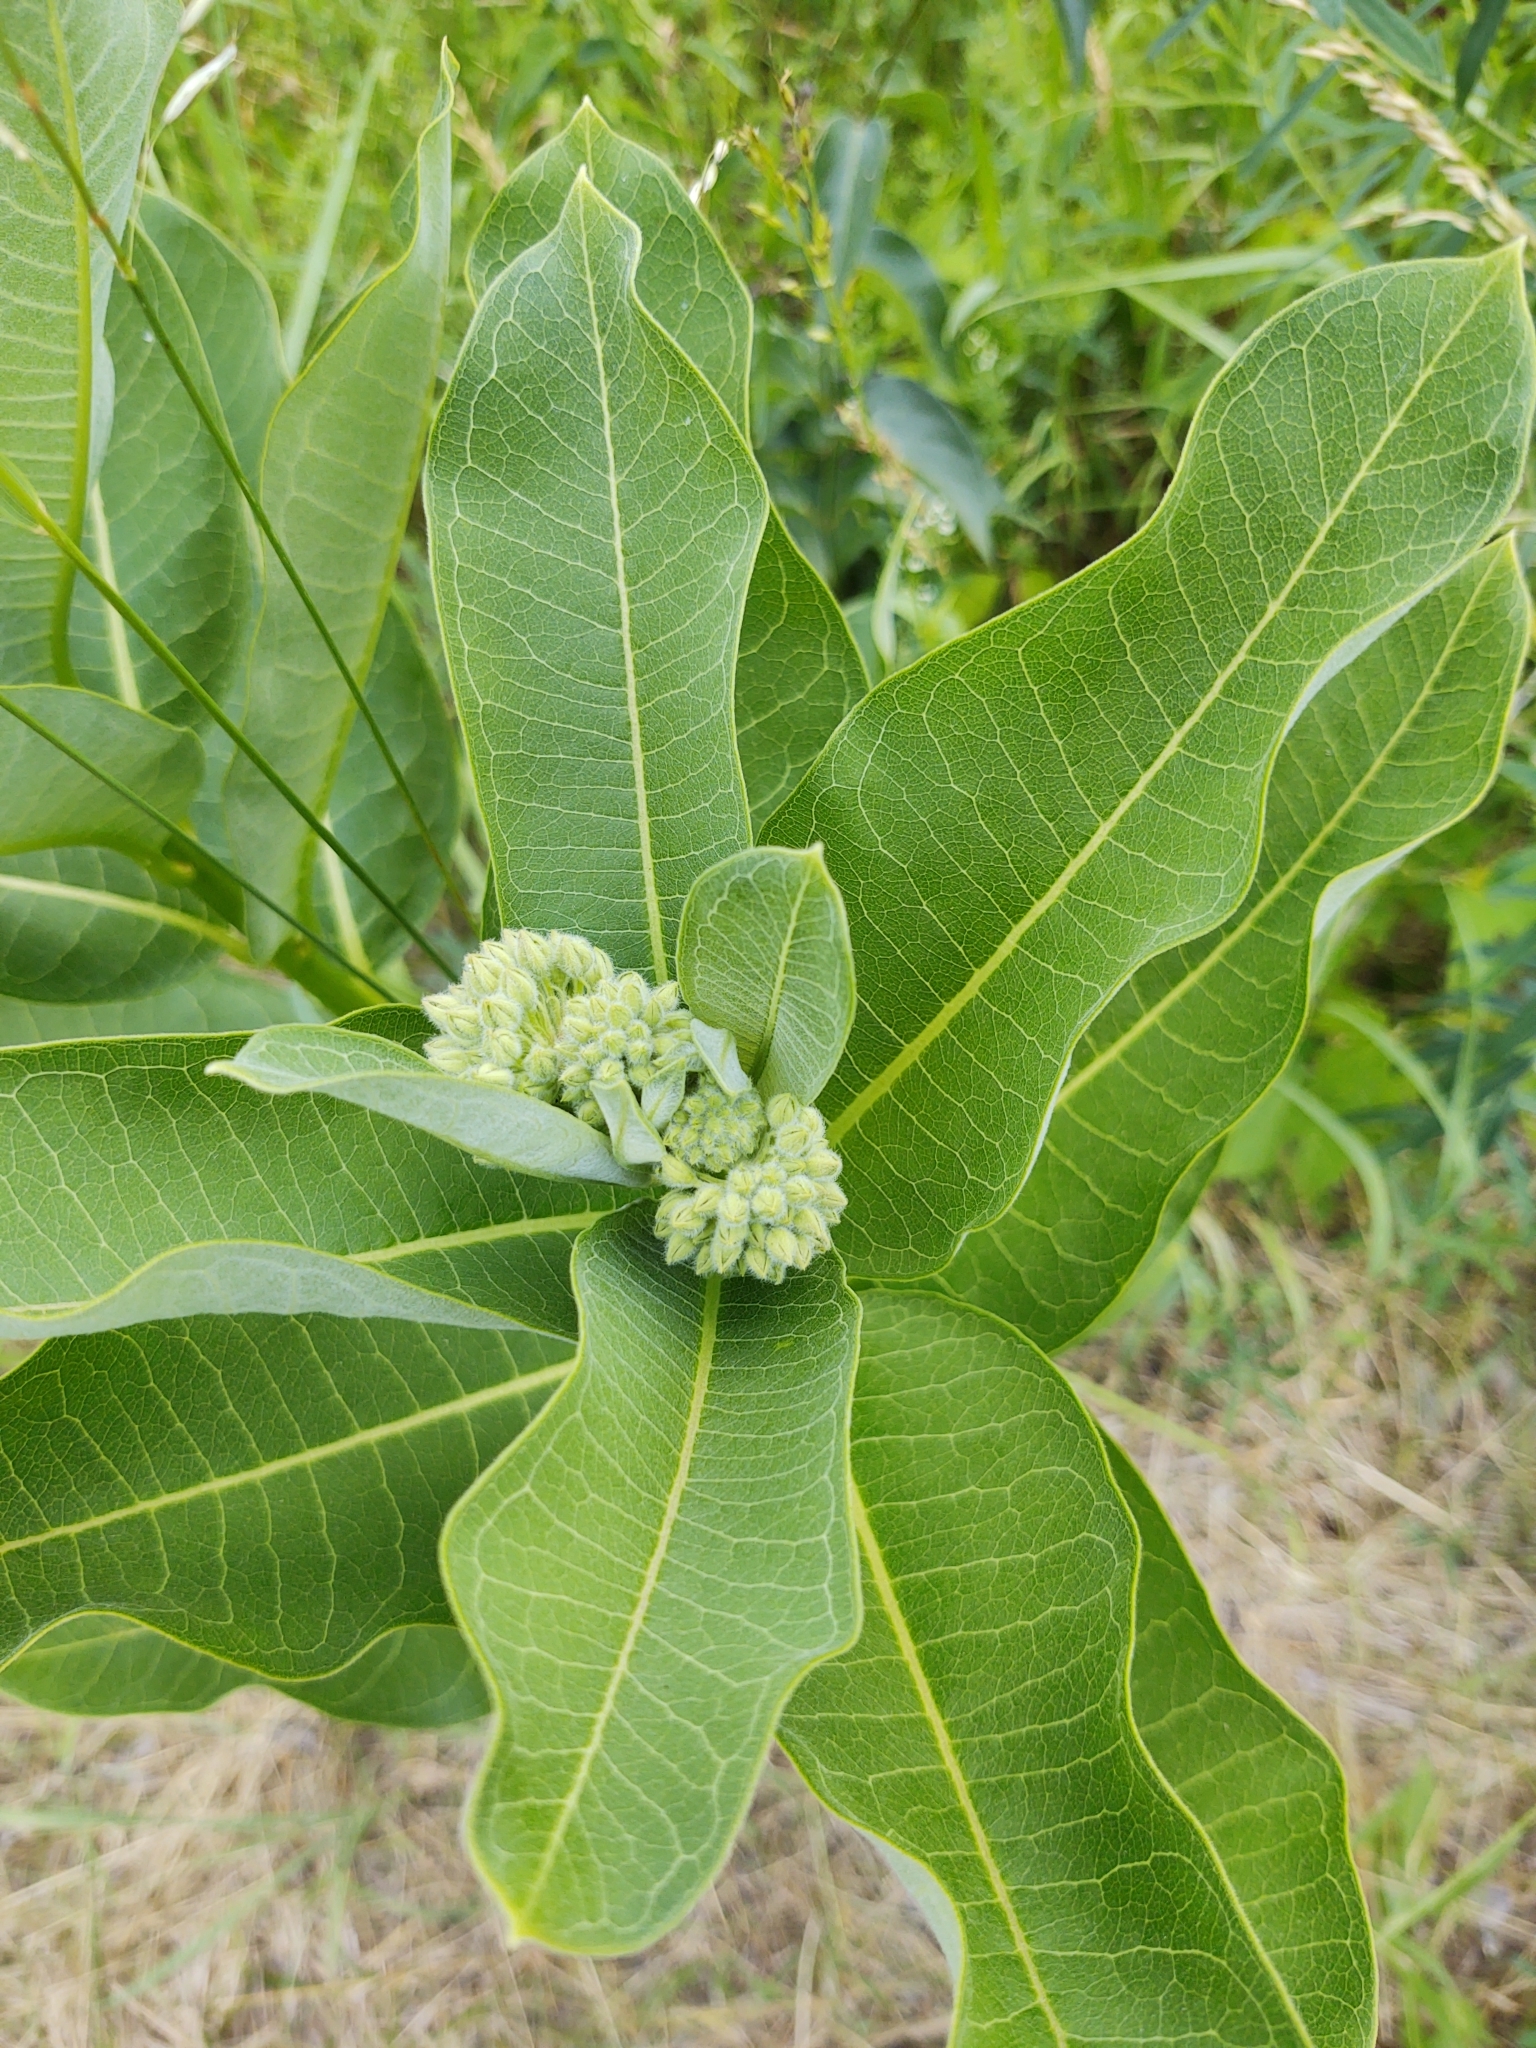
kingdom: Plantae
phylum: Tracheophyta
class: Magnoliopsida
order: Gentianales
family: Apocynaceae
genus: Asclepias
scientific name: Asclepias syriaca
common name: Common milkweed
